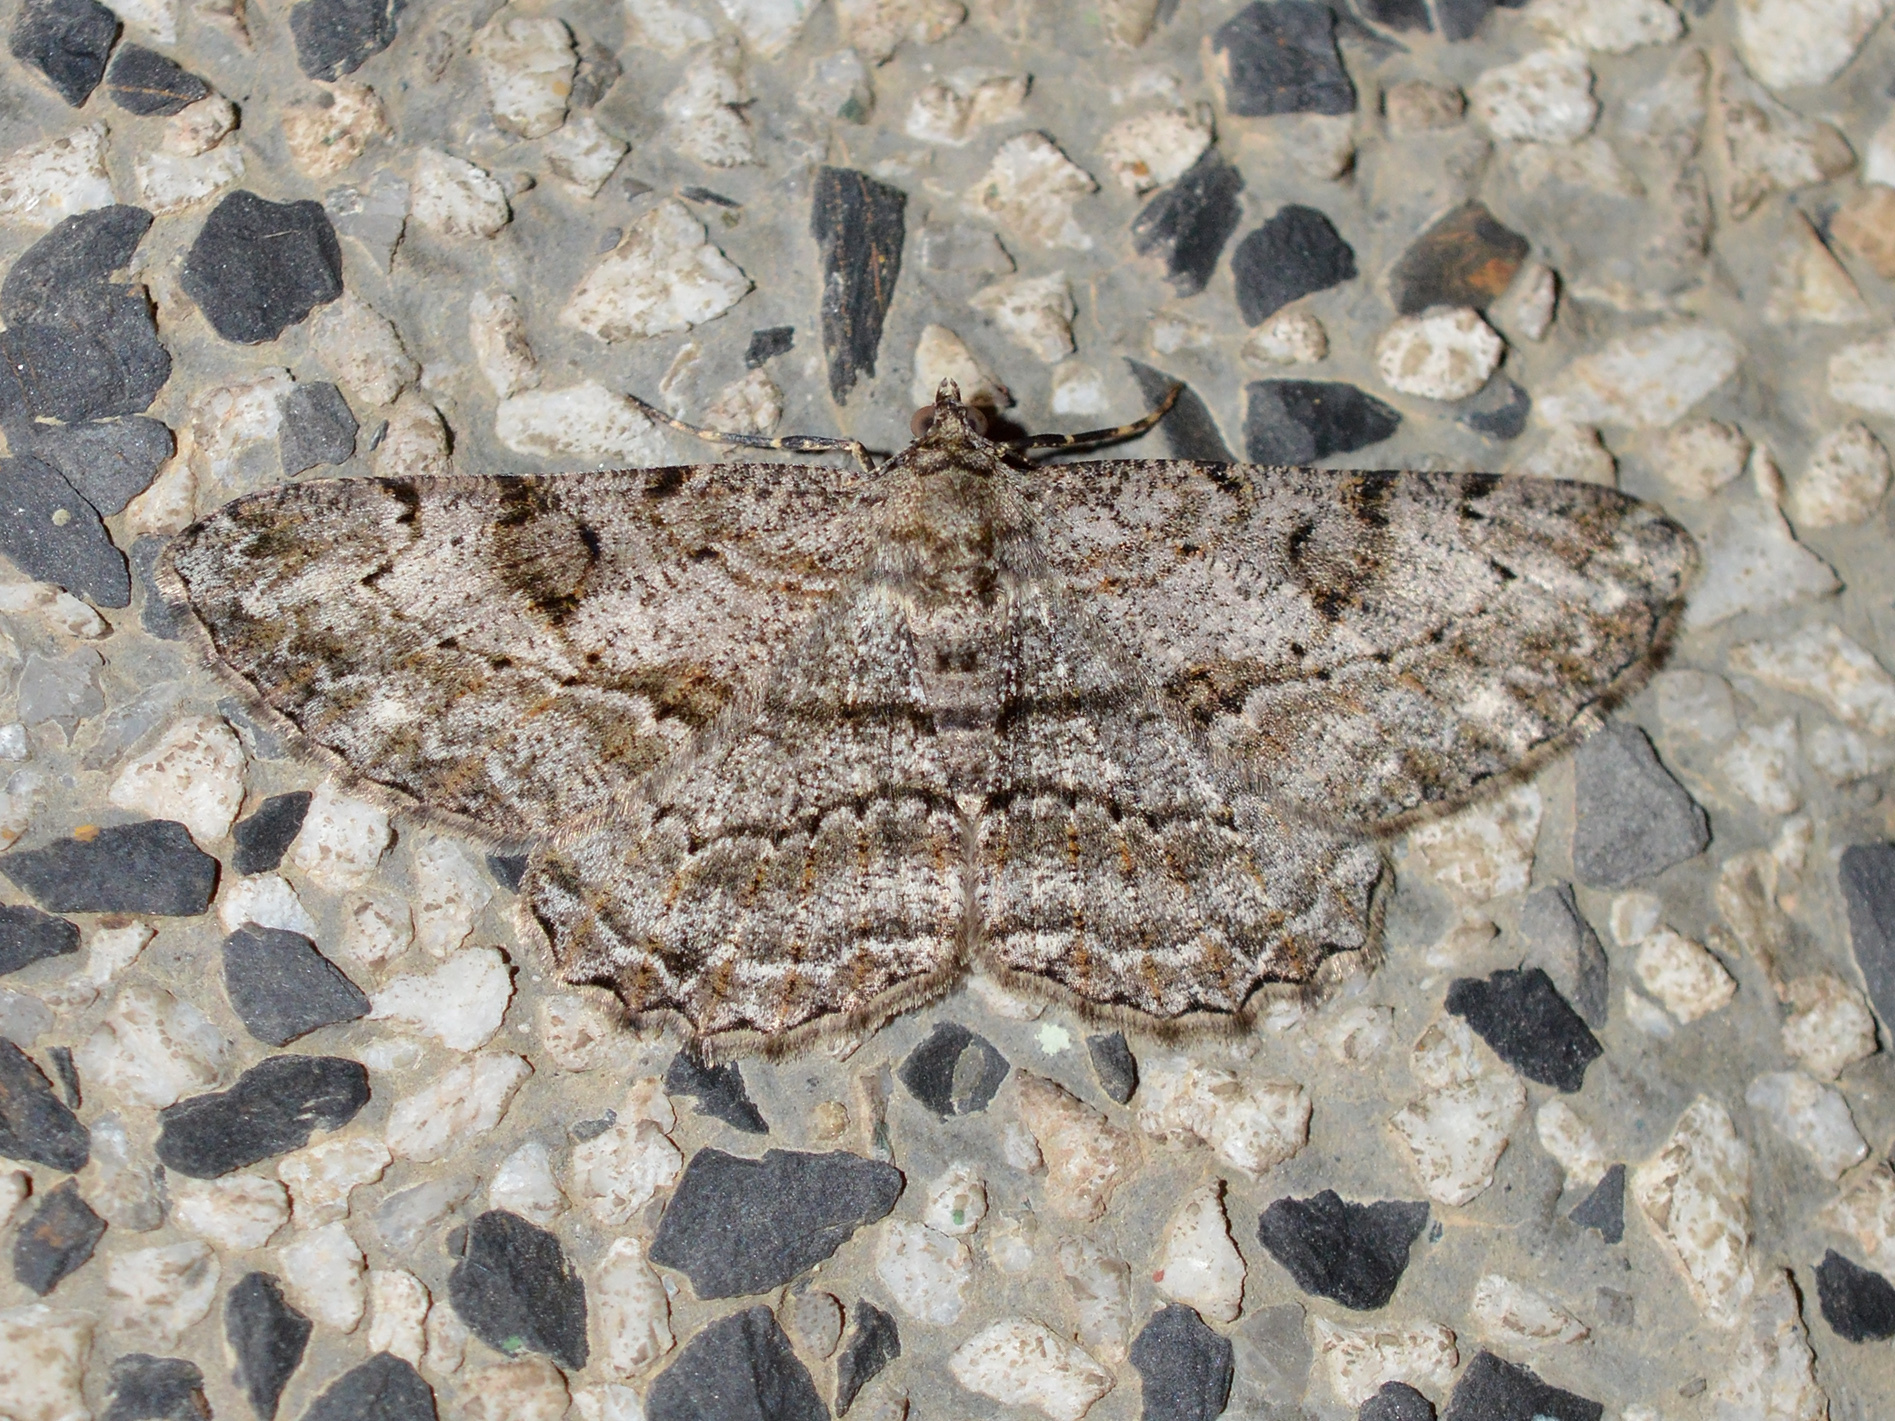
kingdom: Animalia
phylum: Arthropoda
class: Insecta
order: Lepidoptera
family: Geometridae
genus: Peribatodes
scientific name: Peribatodes rhomboidaria
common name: Willow beauty
